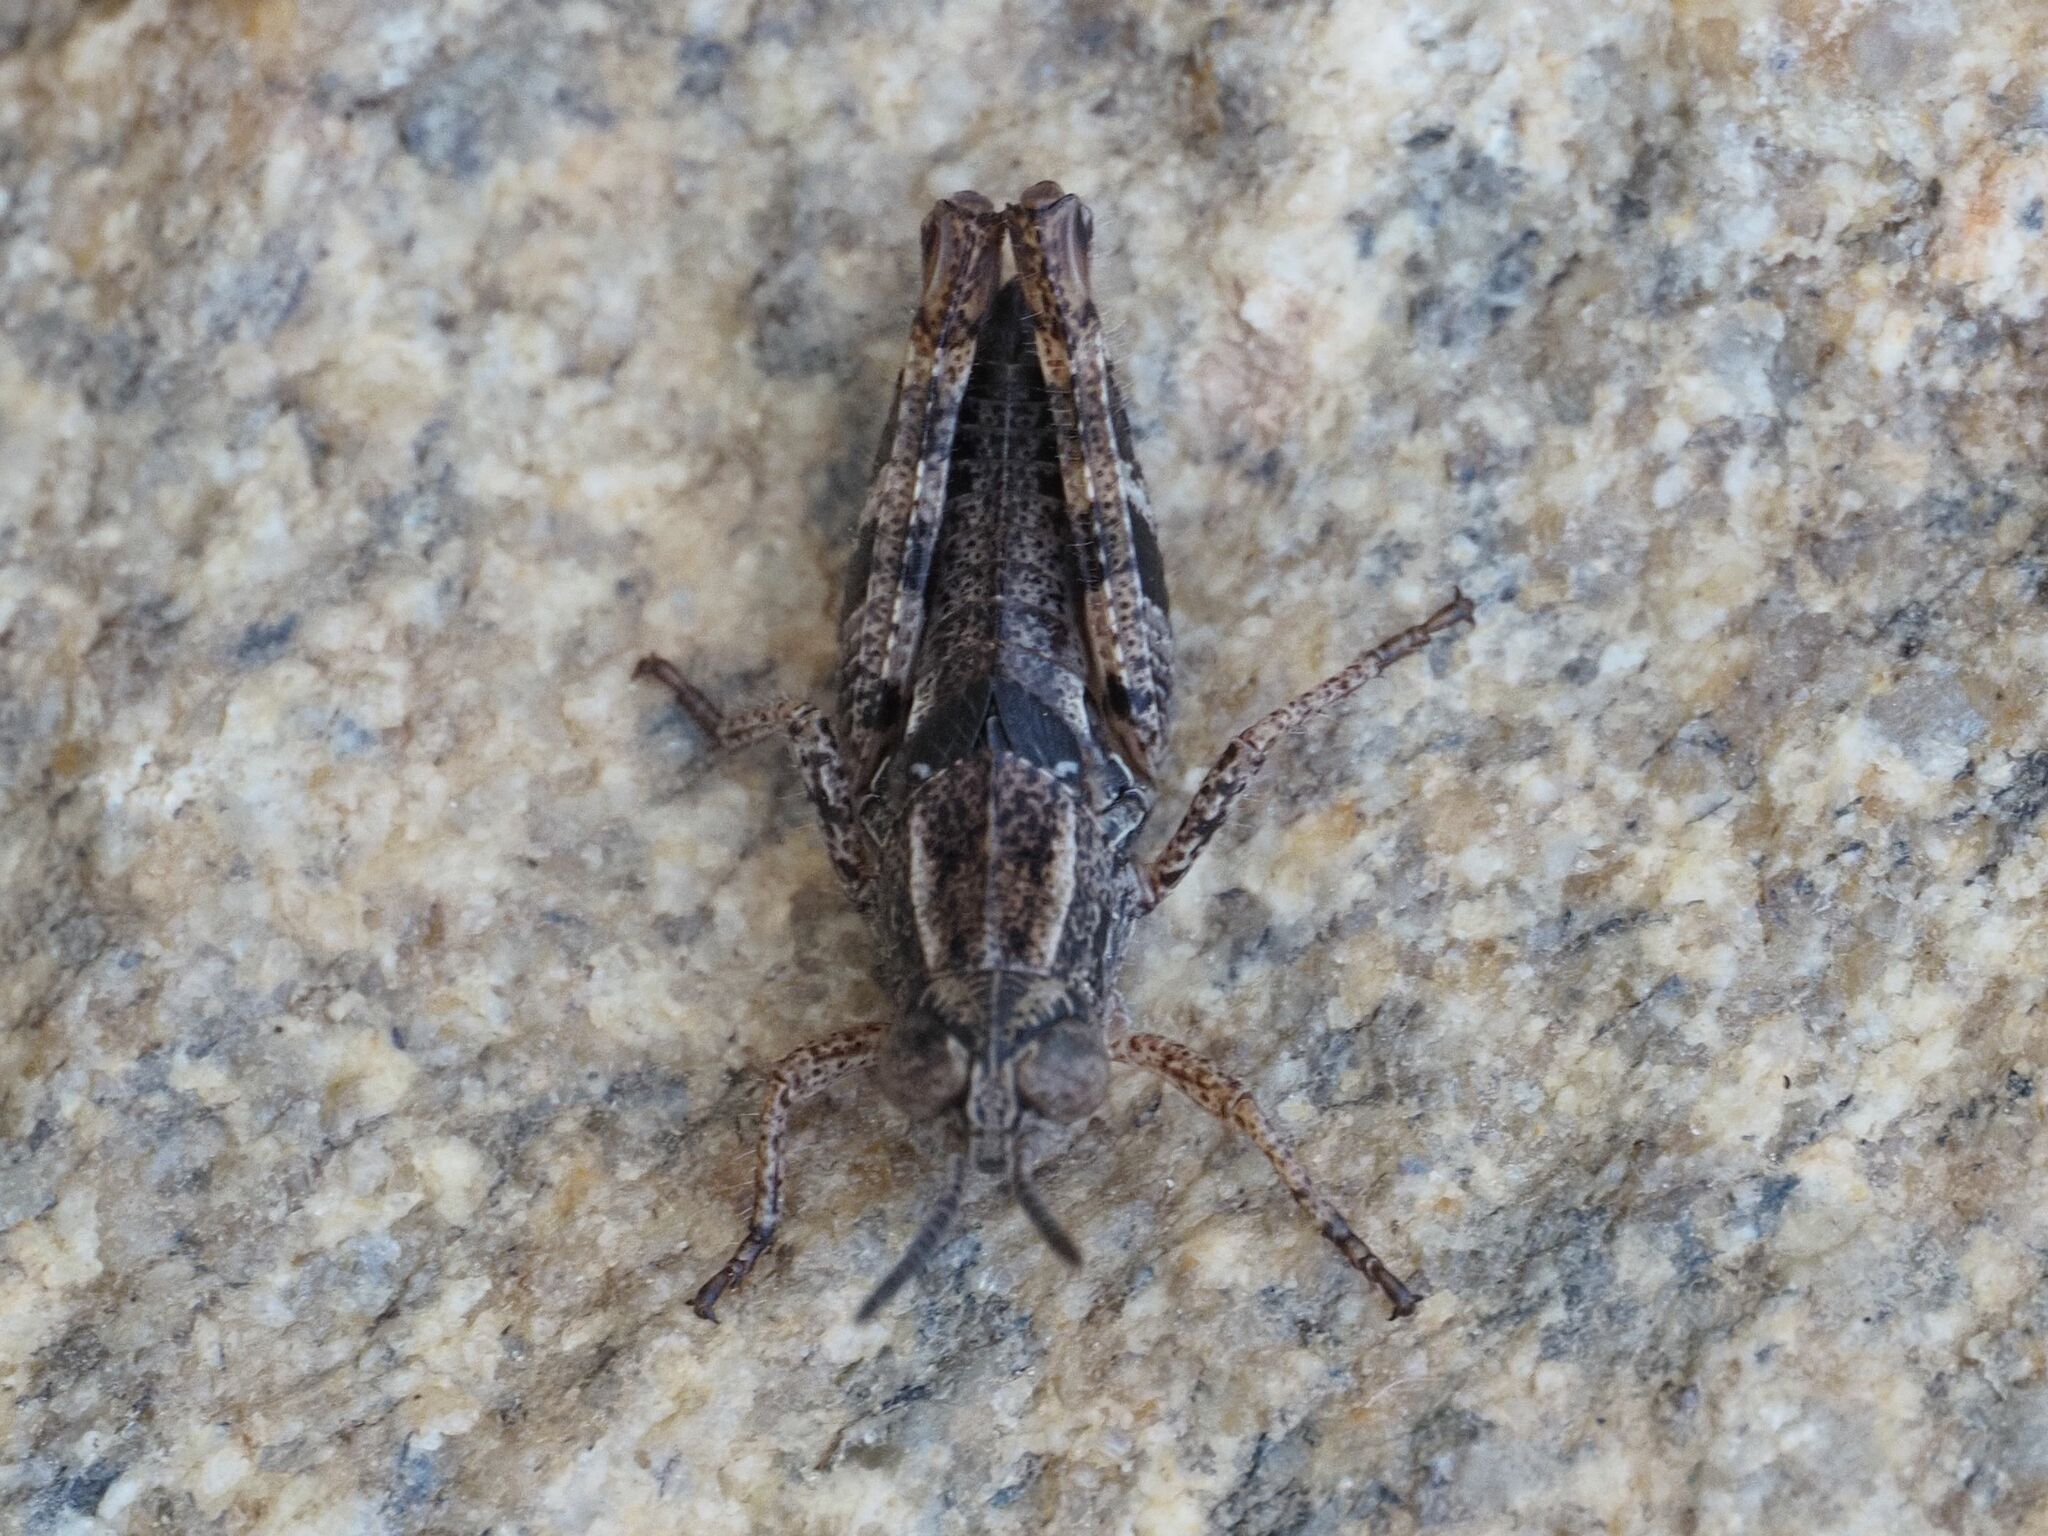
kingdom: Animalia
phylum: Arthropoda
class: Insecta
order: Orthoptera
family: Acrididae
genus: Calliptamus
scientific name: Calliptamus italicus
